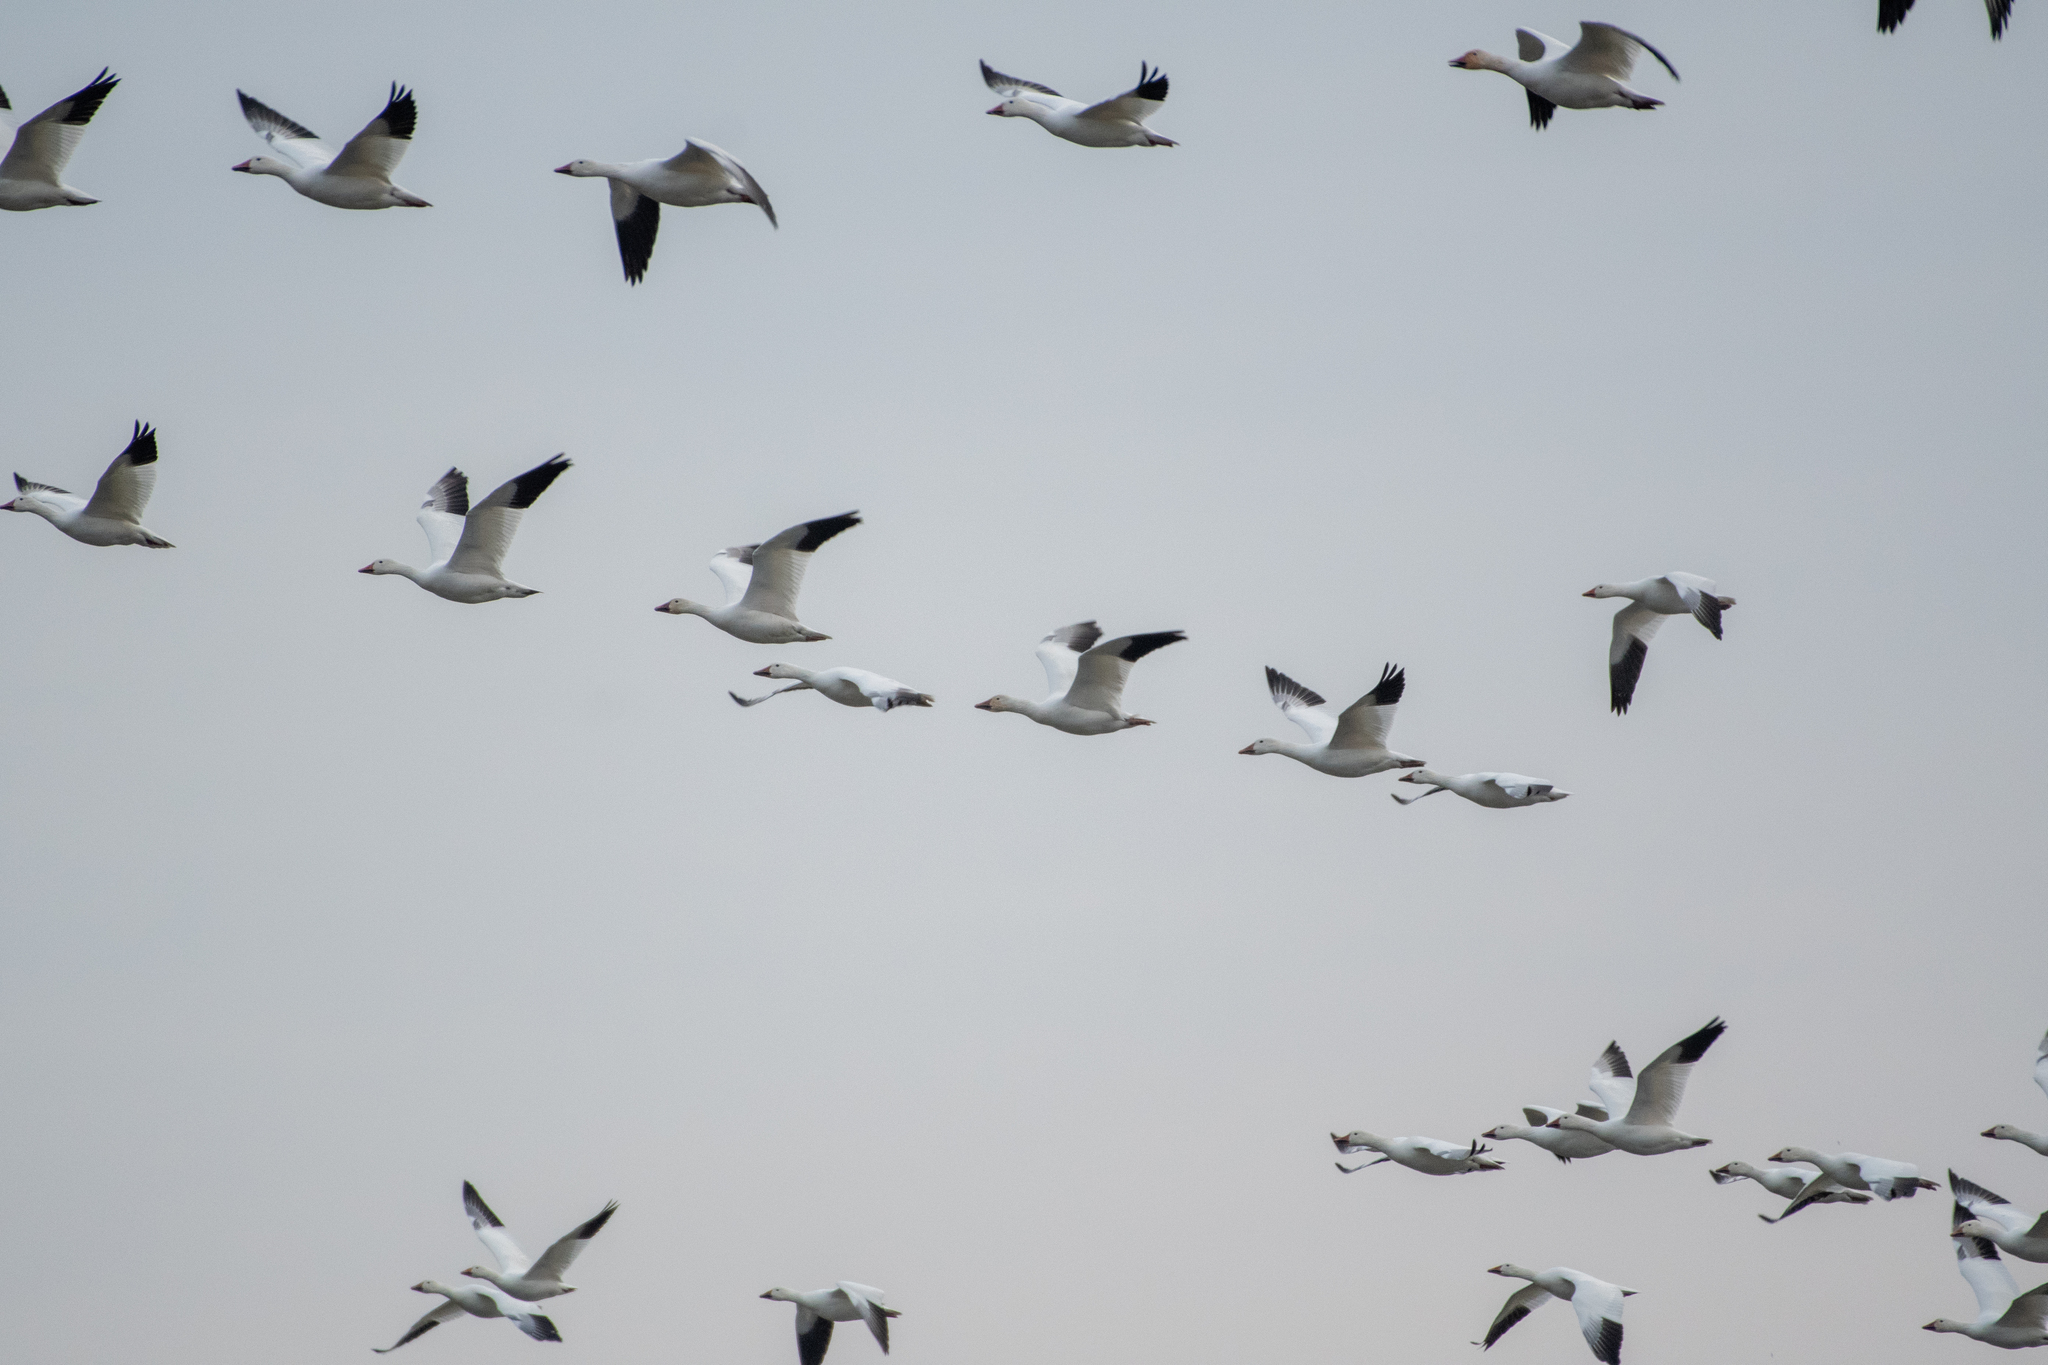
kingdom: Animalia
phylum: Chordata
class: Aves
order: Anseriformes
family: Anatidae
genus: Anser
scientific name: Anser caerulescens
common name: Snow goose
